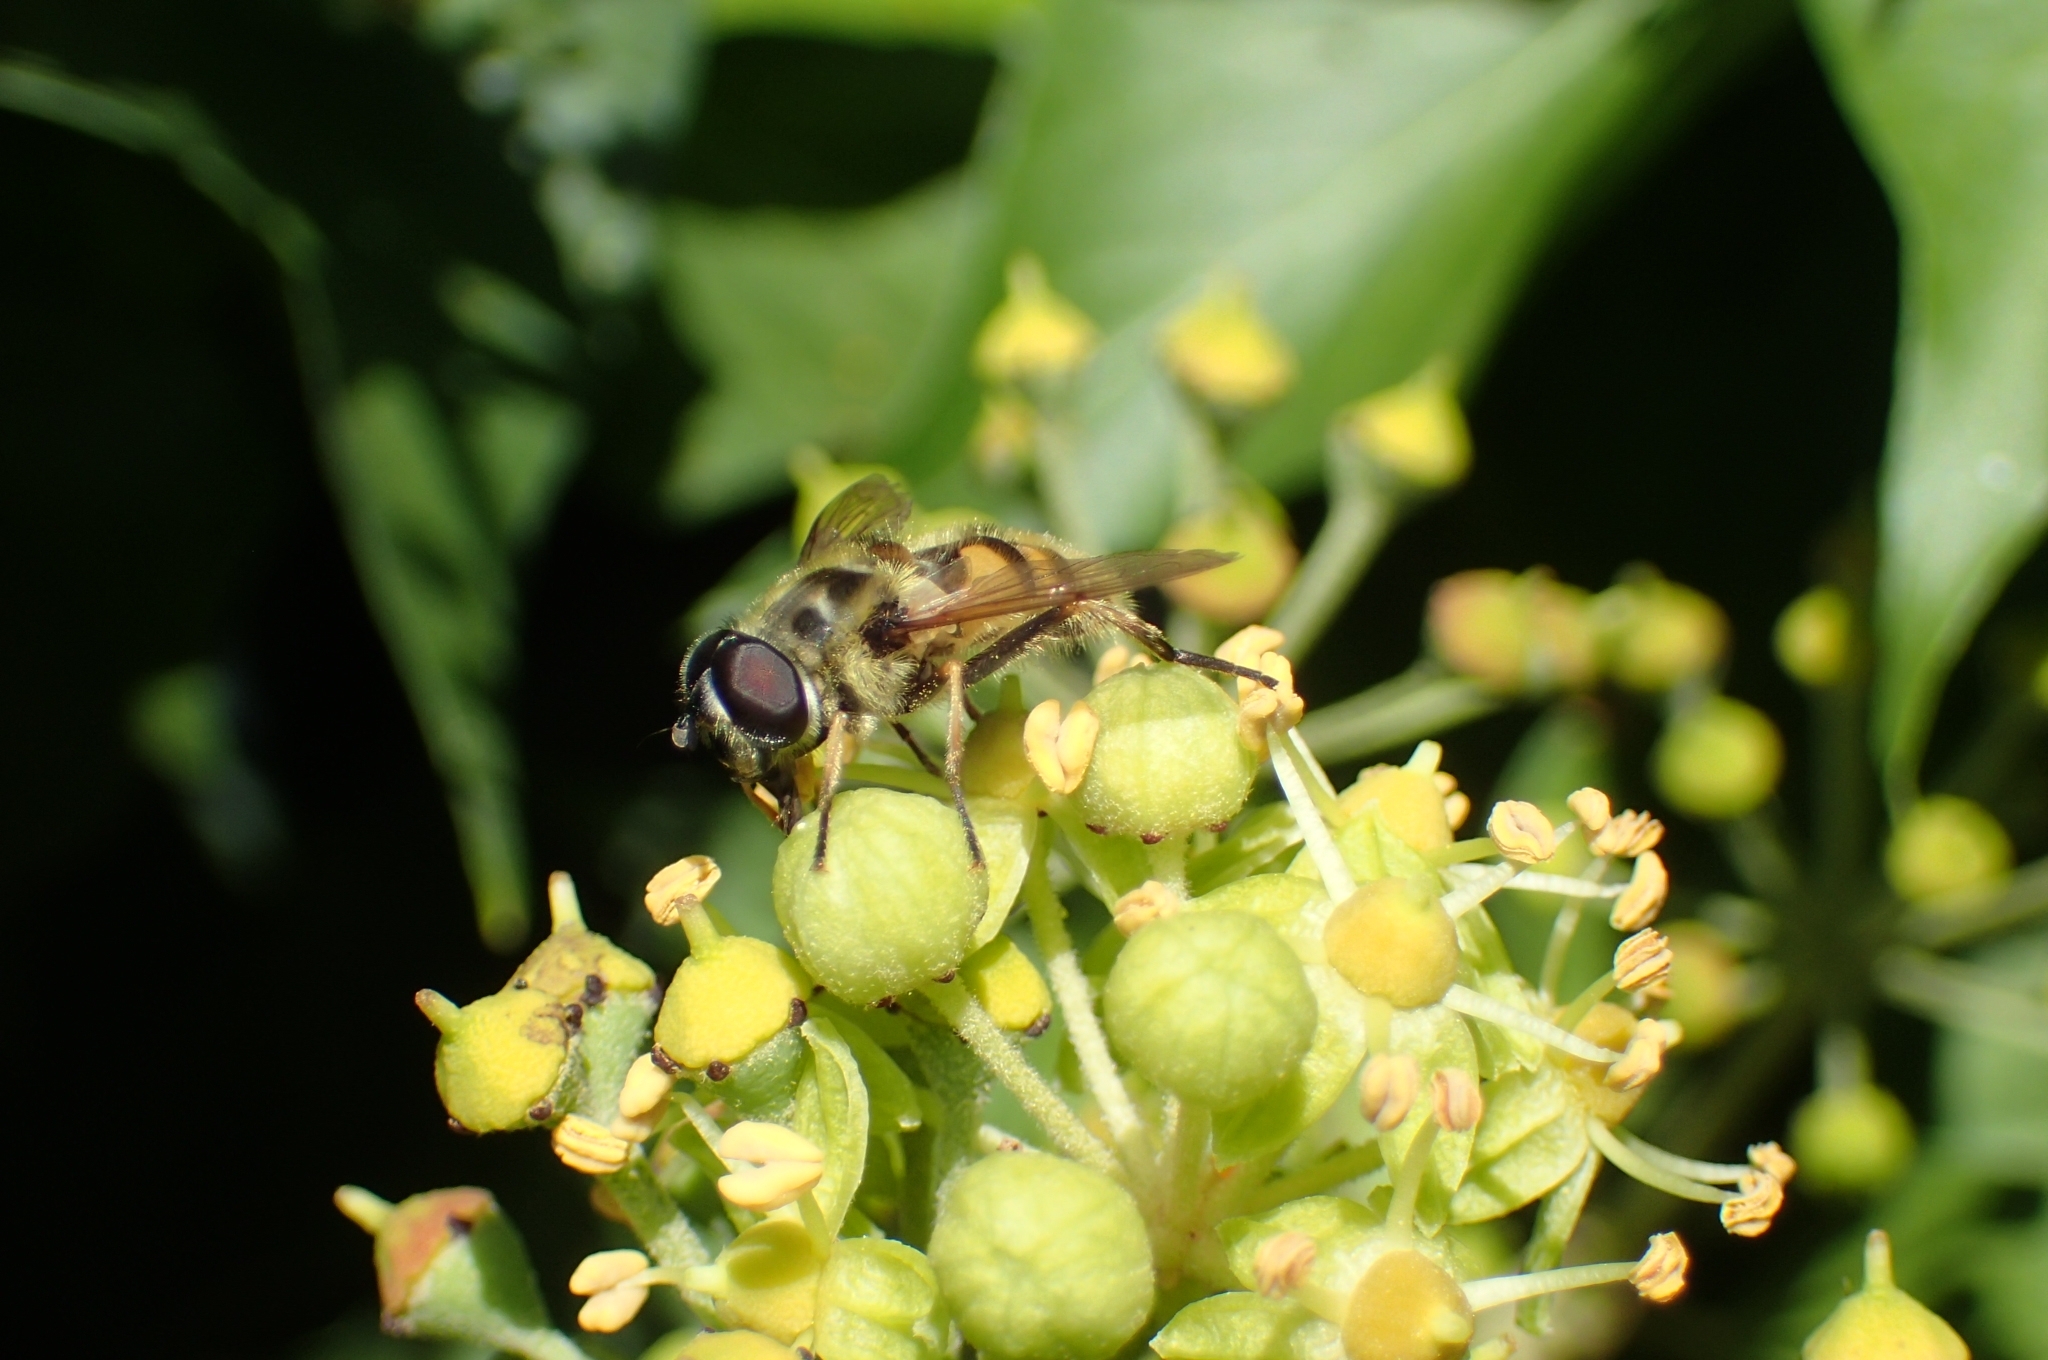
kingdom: Animalia
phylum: Arthropoda
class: Insecta
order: Diptera
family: Syrphidae
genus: Myathropa
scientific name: Myathropa florea
